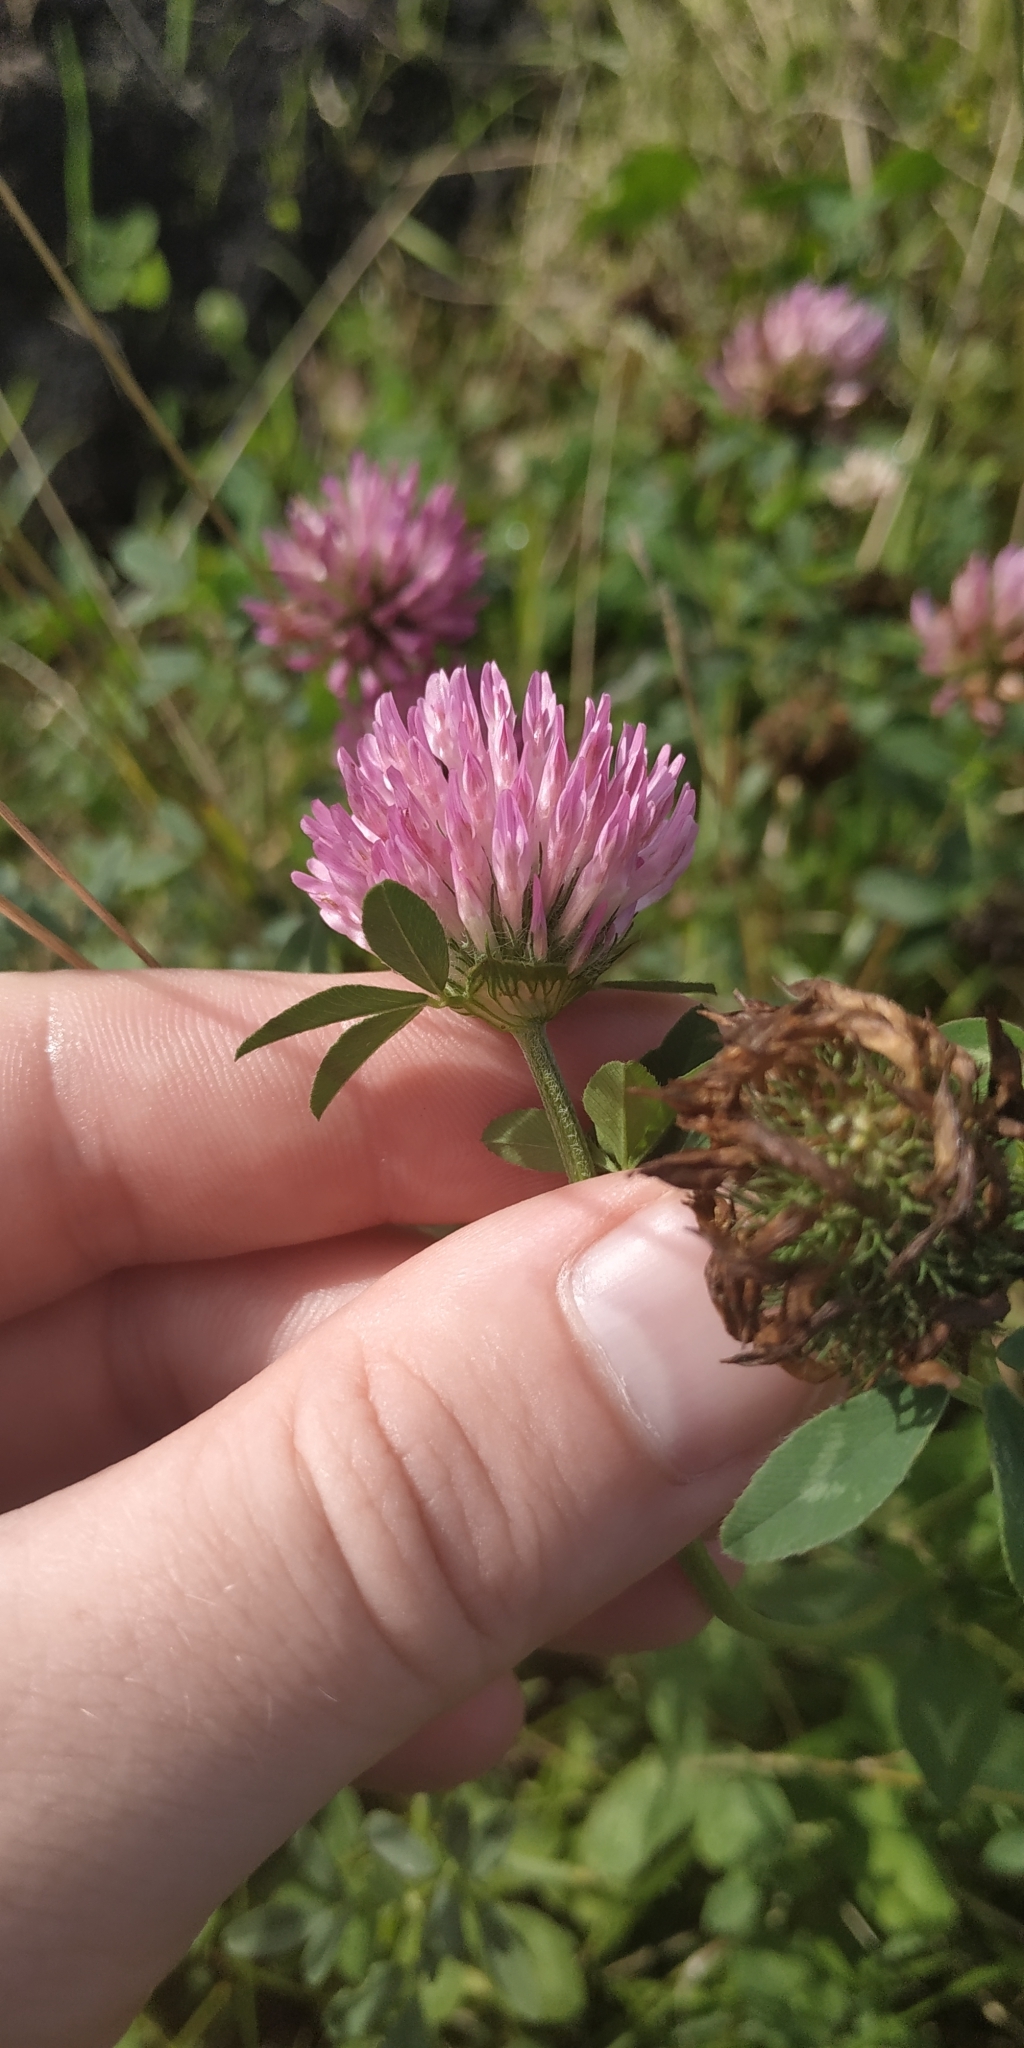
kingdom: Plantae
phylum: Tracheophyta
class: Magnoliopsida
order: Fabales
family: Fabaceae
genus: Trifolium
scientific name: Trifolium pratense
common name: Red clover
